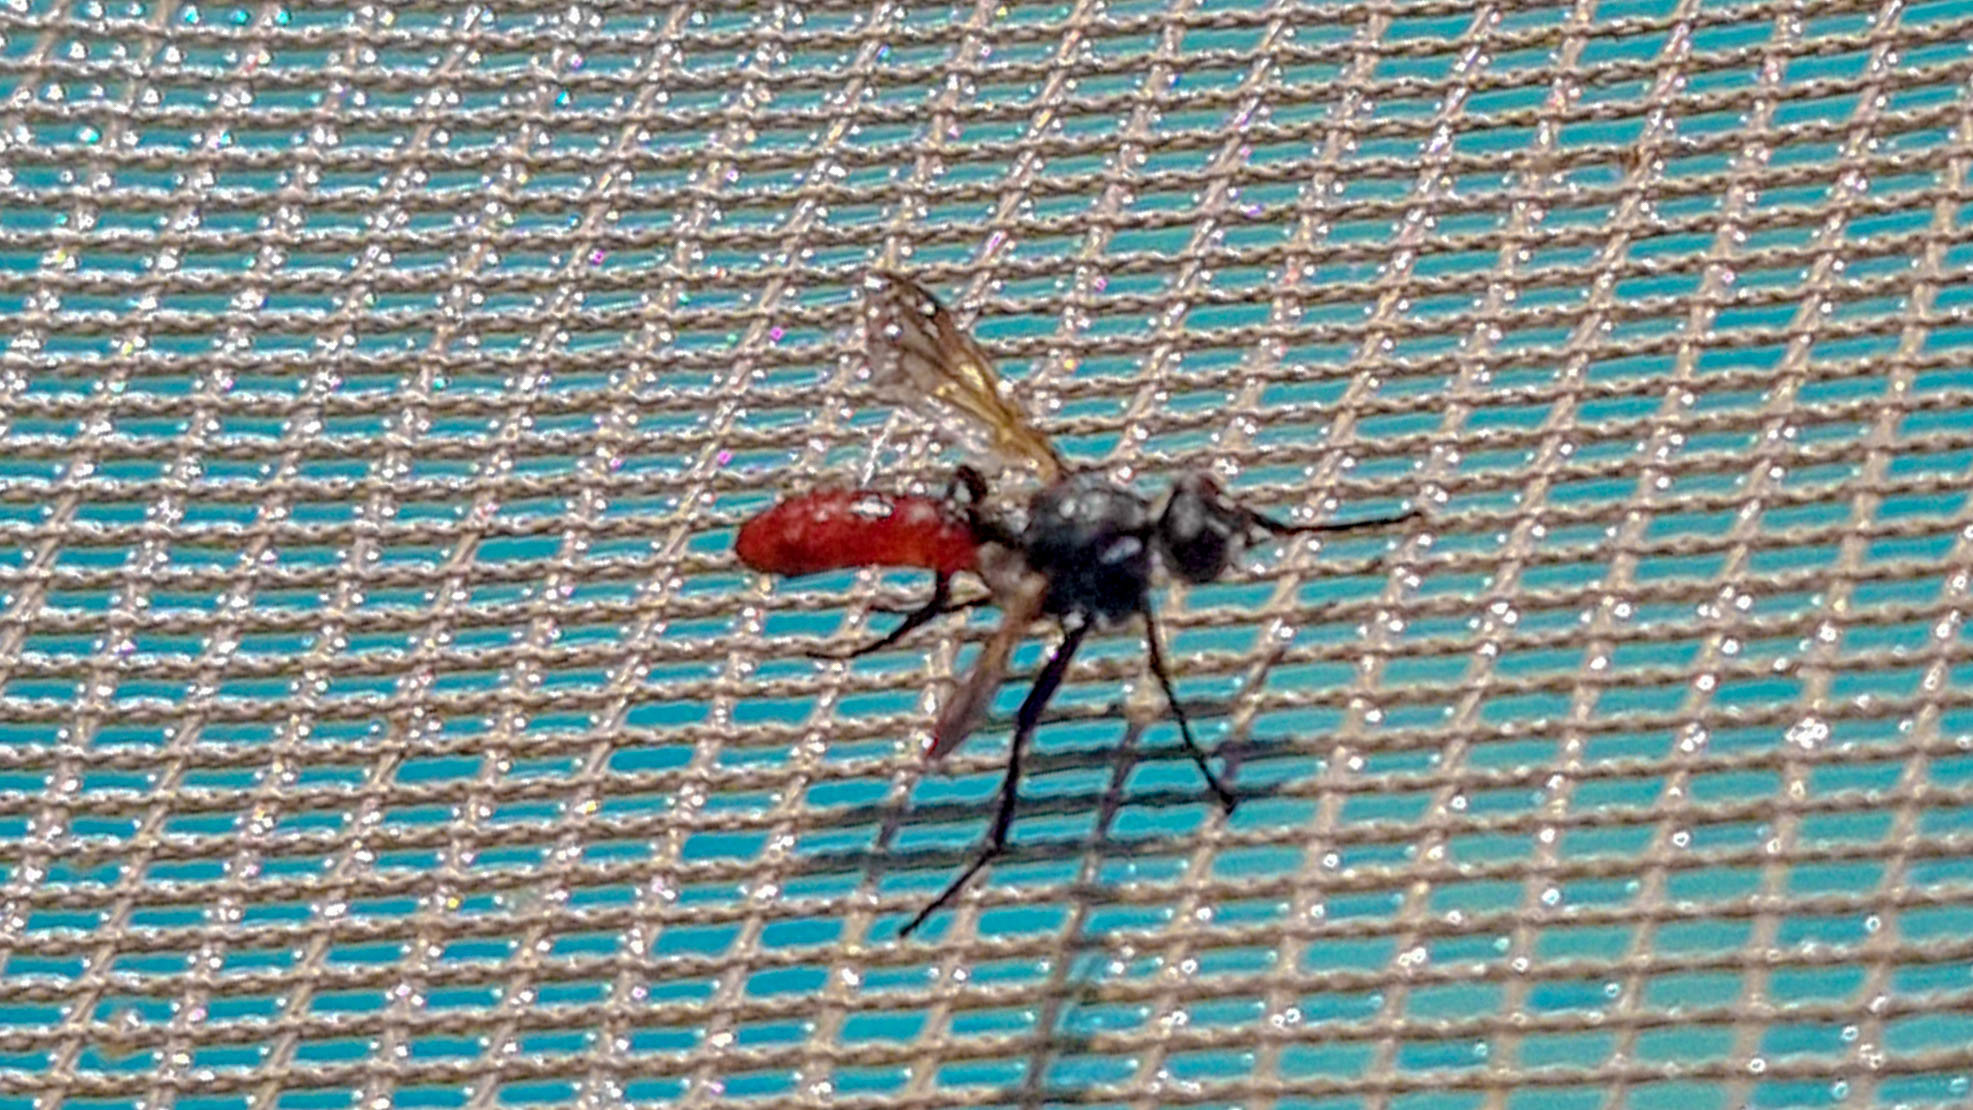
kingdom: Animalia
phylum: Arthropoda
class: Insecta
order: Diptera
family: Tachinidae
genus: Cylindromyia
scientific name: Cylindromyia bicolor
